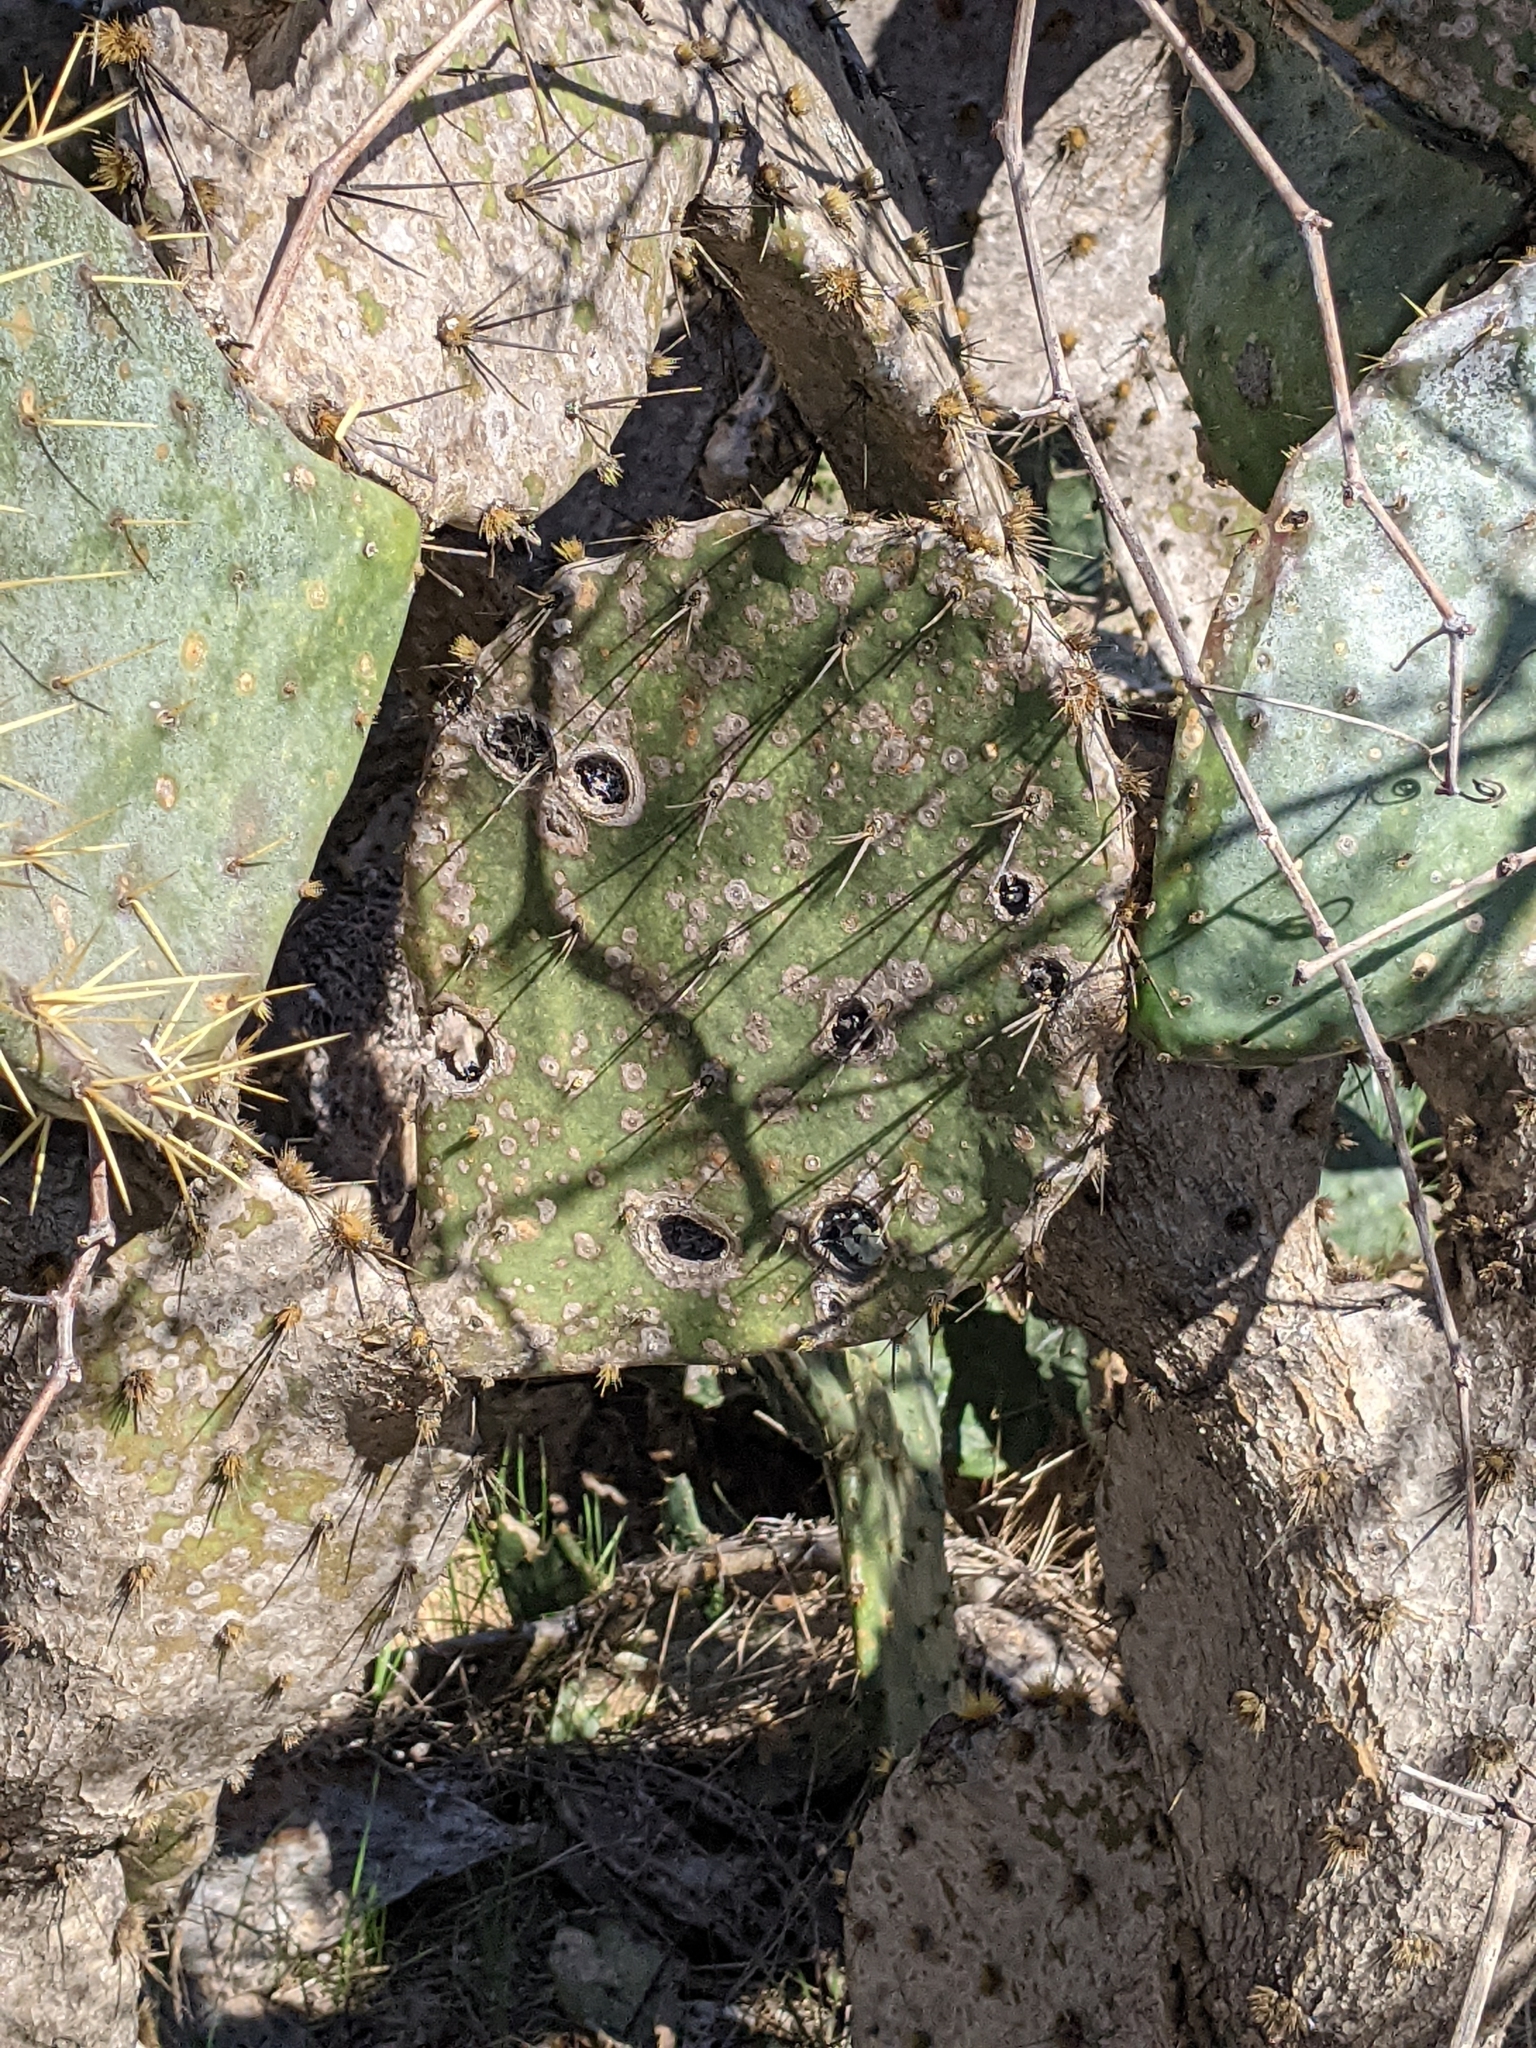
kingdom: Fungi
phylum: Ascomycota
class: Dothideomycetes
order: Botryosphaeriales
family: Phyllostictaceae
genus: Phyllosticta
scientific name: Phyllosticta concava
